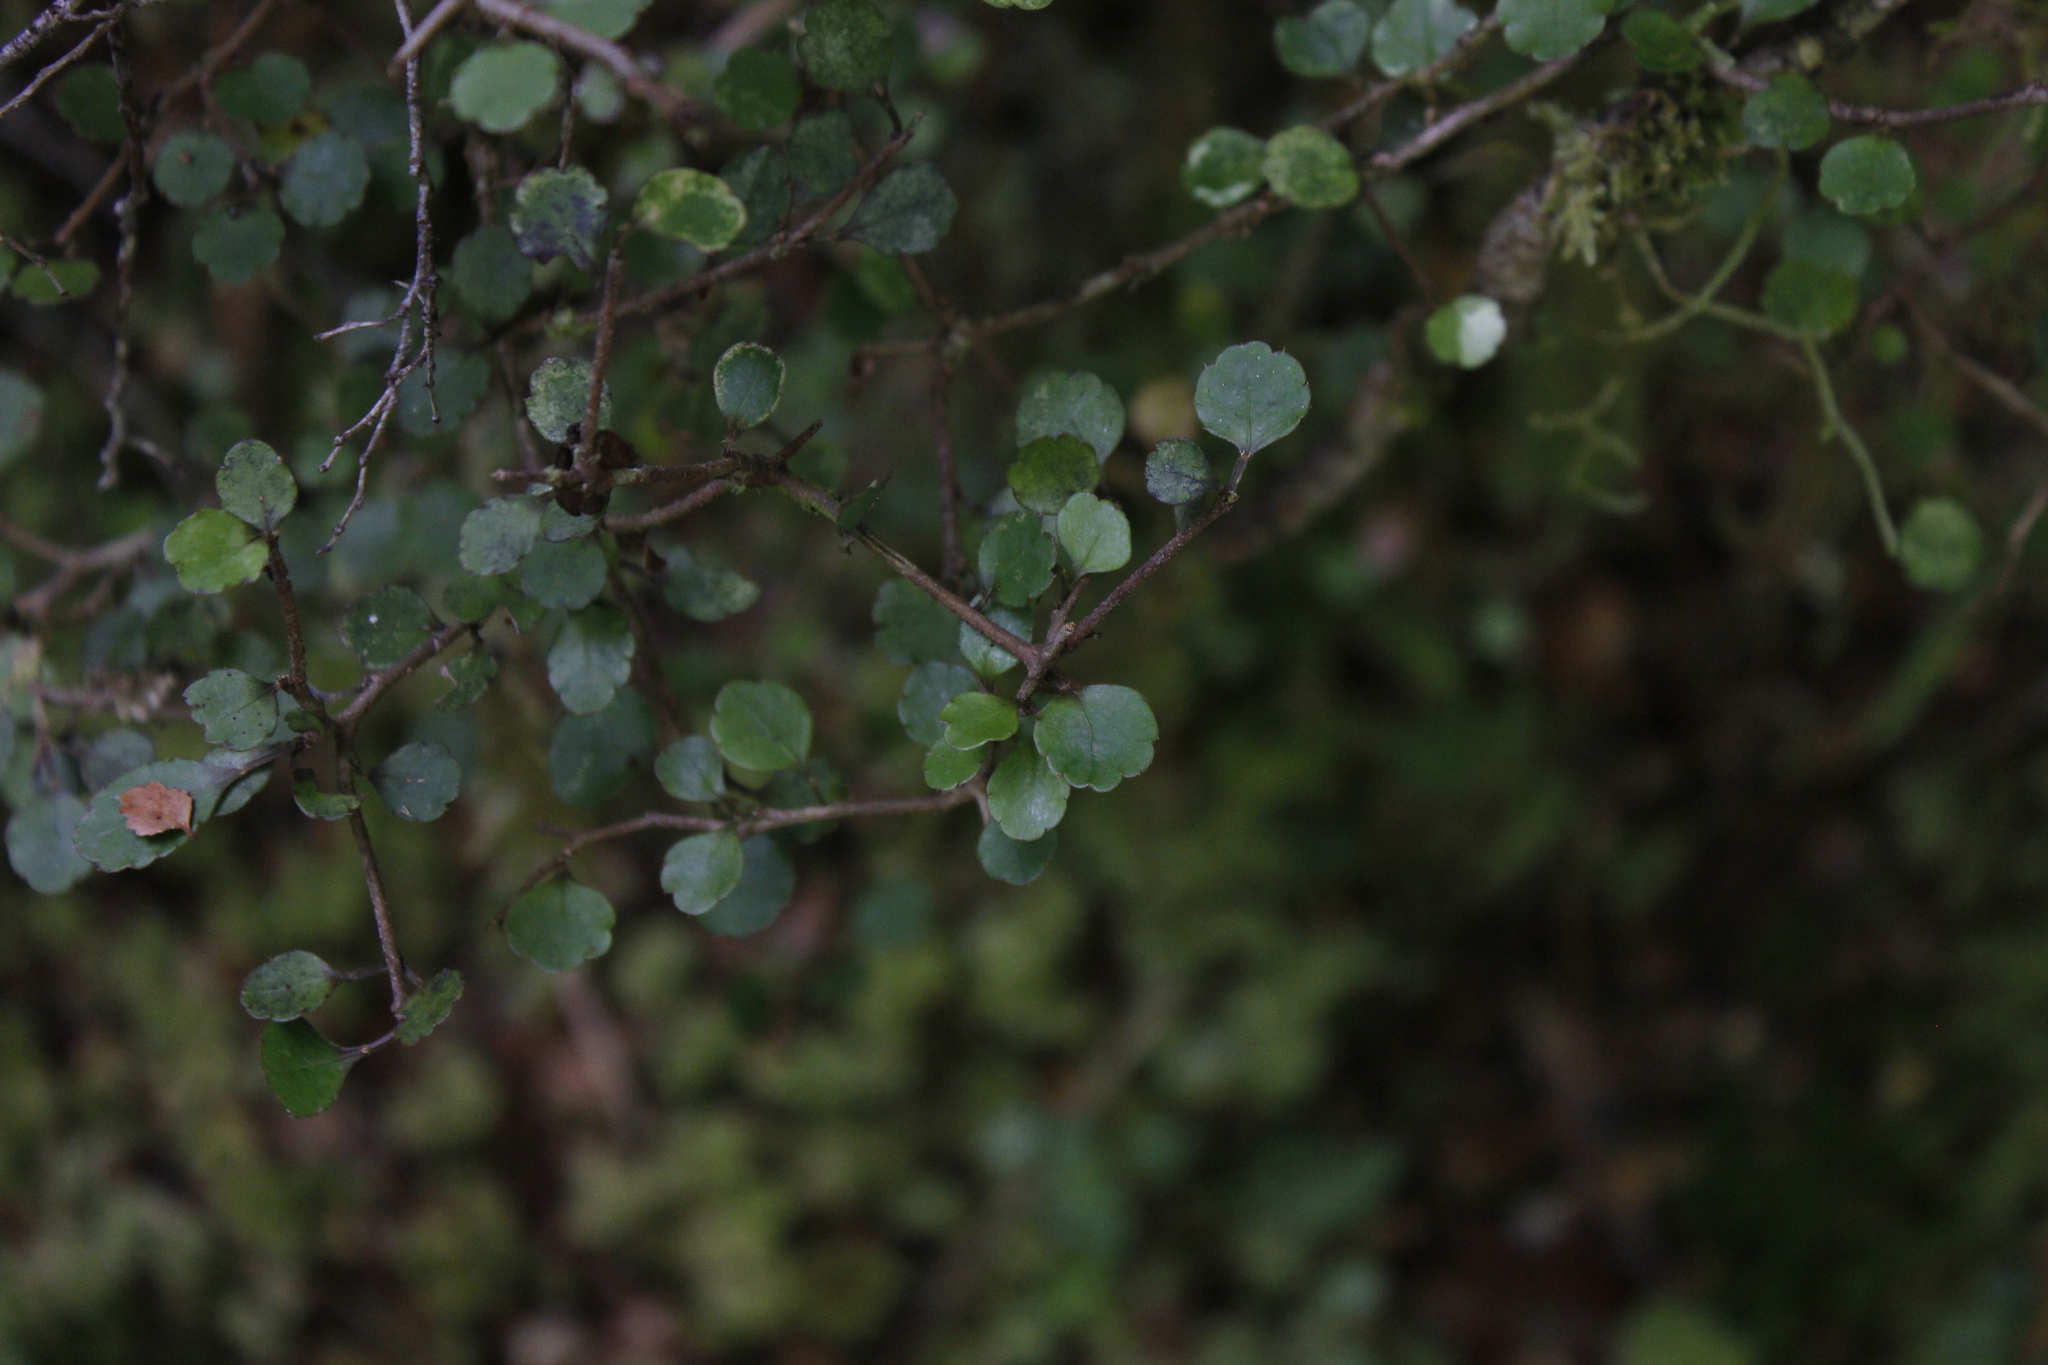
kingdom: Plantae
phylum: Tracheophyta
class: Magnoliopsida
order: Apiales
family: Araliaceae
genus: Raukaua
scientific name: Raukaua anomalus
